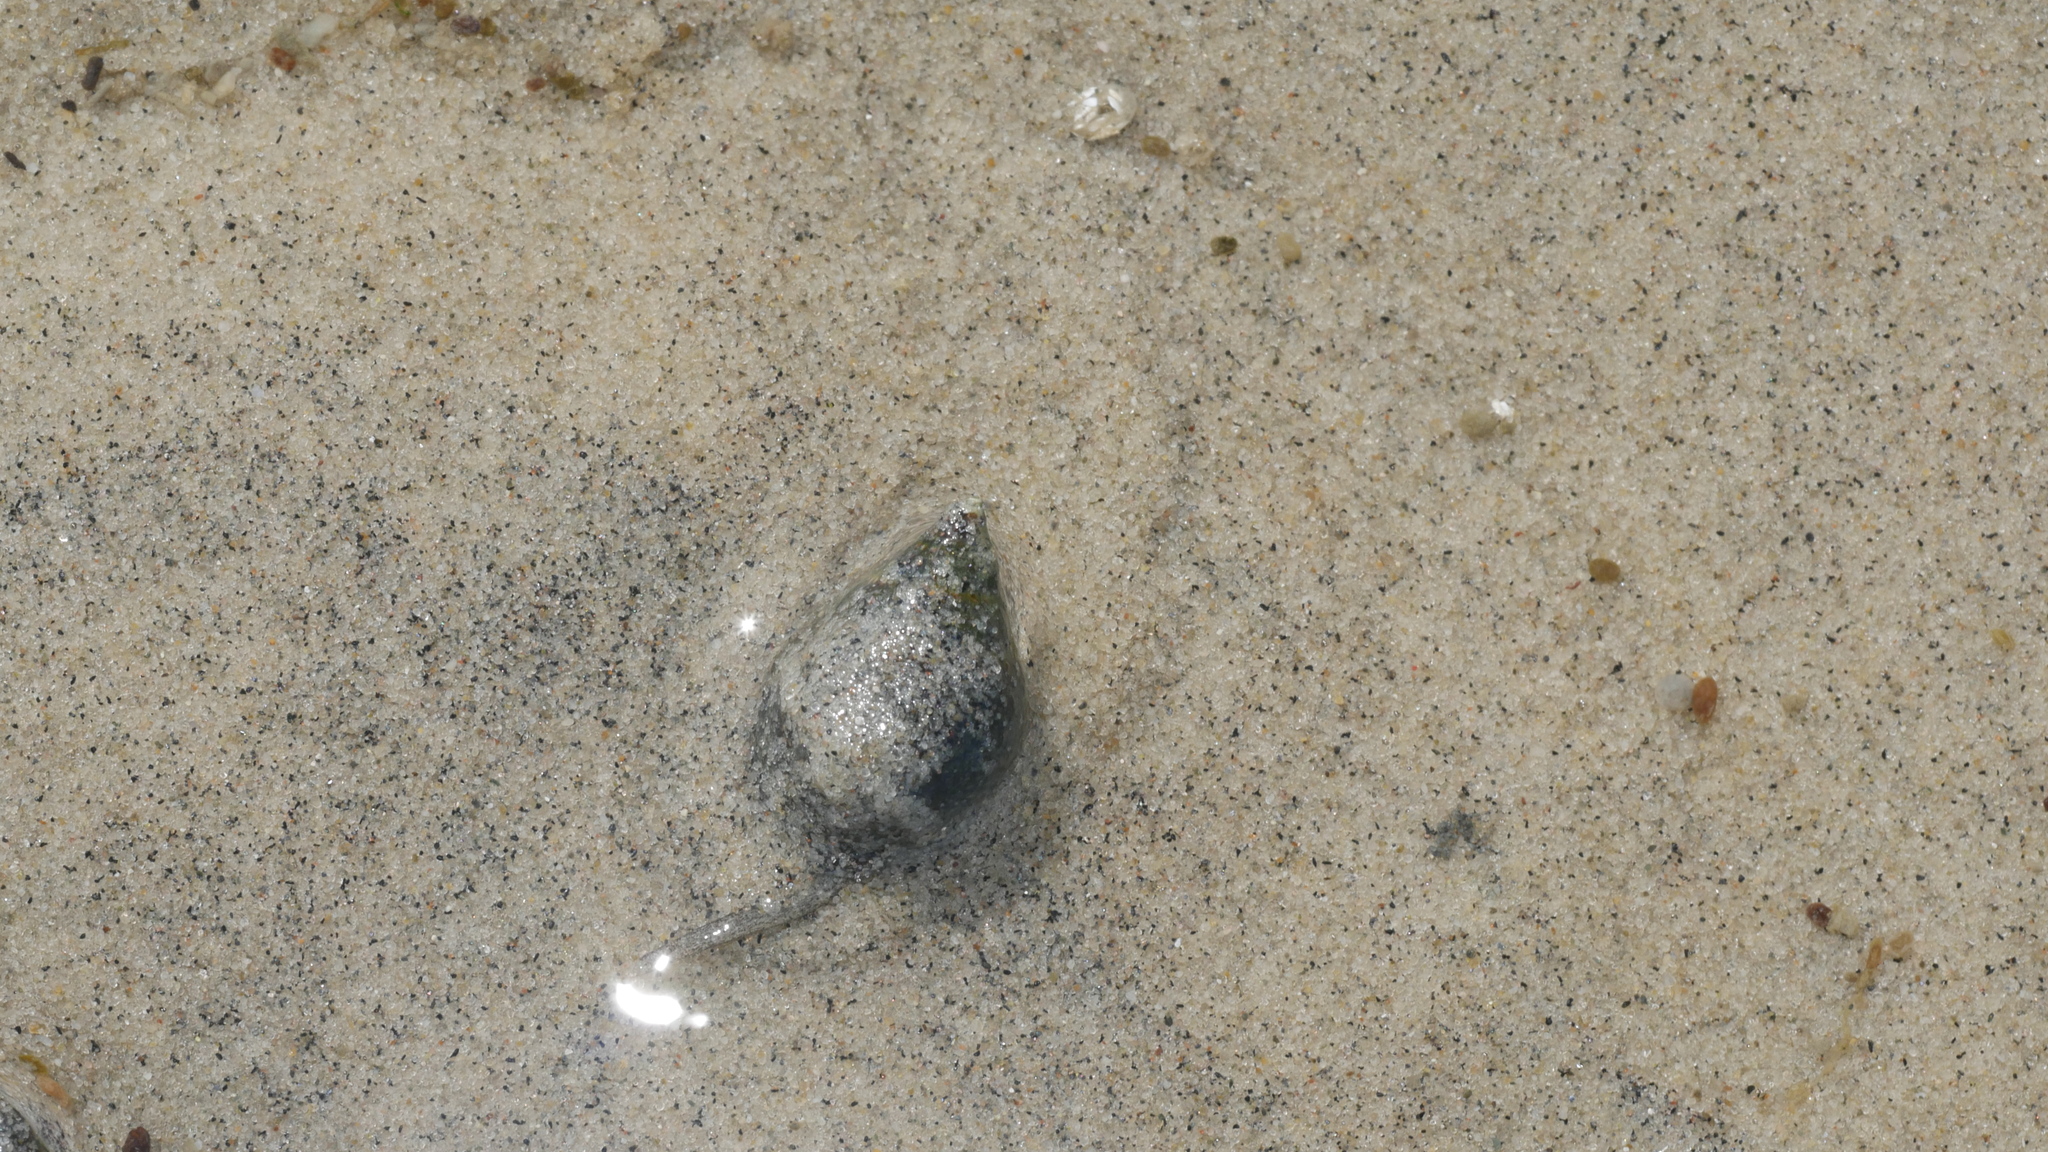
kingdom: Animalia
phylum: Mollusca
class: Gastropoda
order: Neogastropoda
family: Nassariidae
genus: Ilyanassa
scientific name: Ilyanassa obsoleta
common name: Eastern mudsnail
